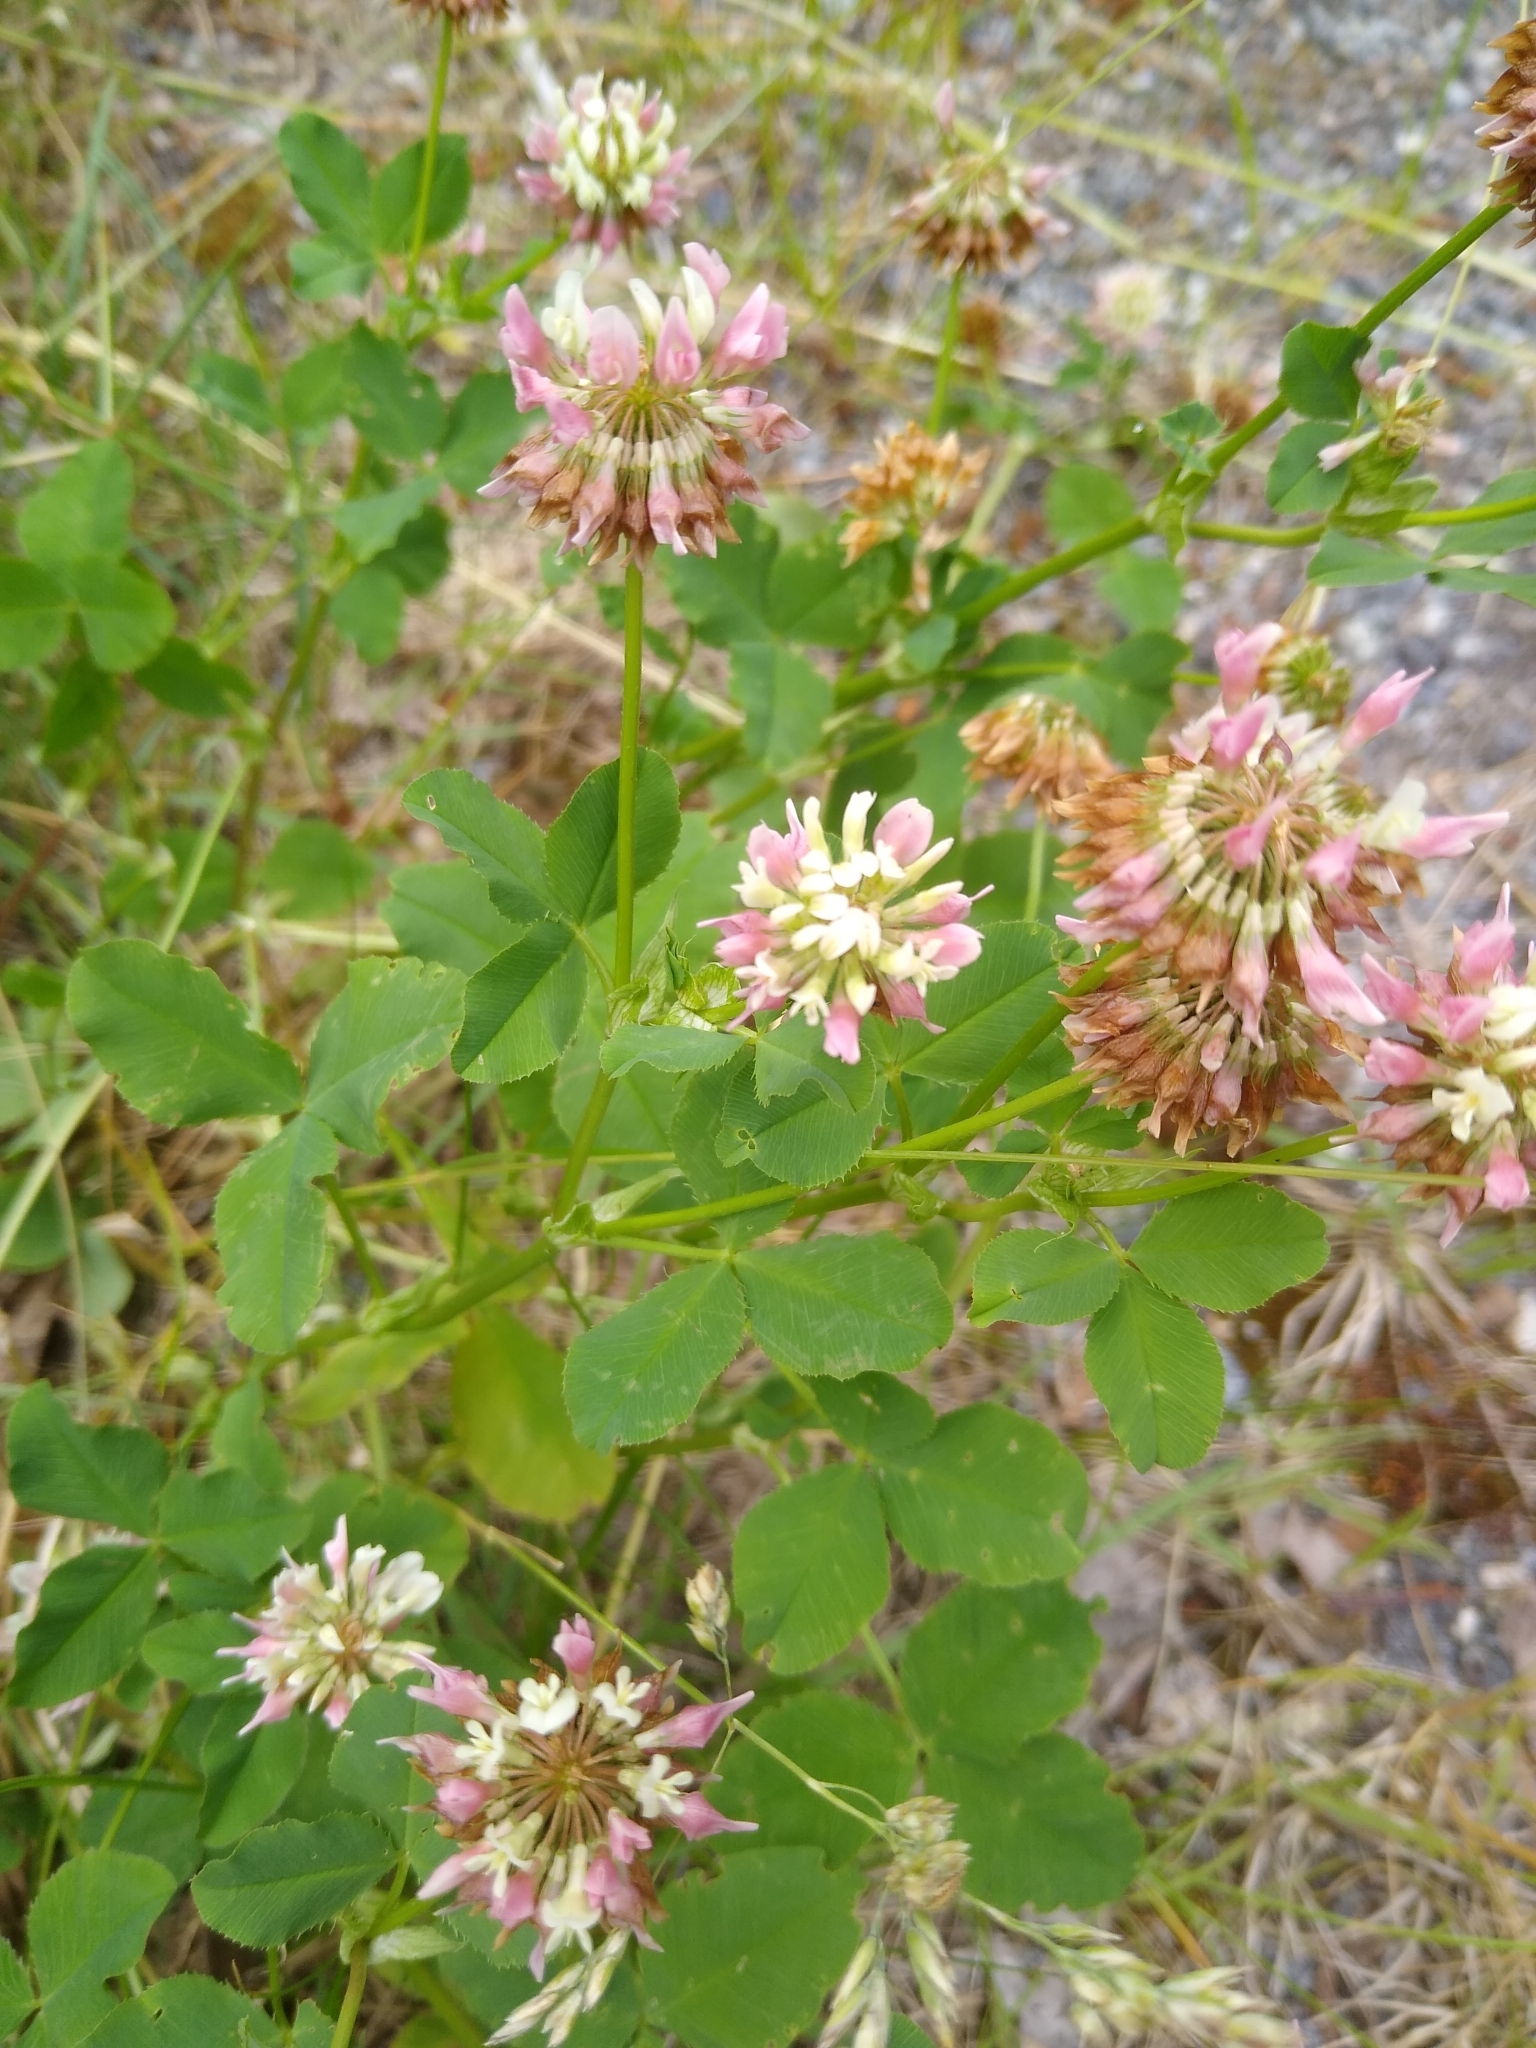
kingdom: Plantae
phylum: Tracheophyta
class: Magnoliopsida
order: Fabales
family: Fabaceae
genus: Trifolium
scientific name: Trifolium hybridum
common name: Alsike clover
